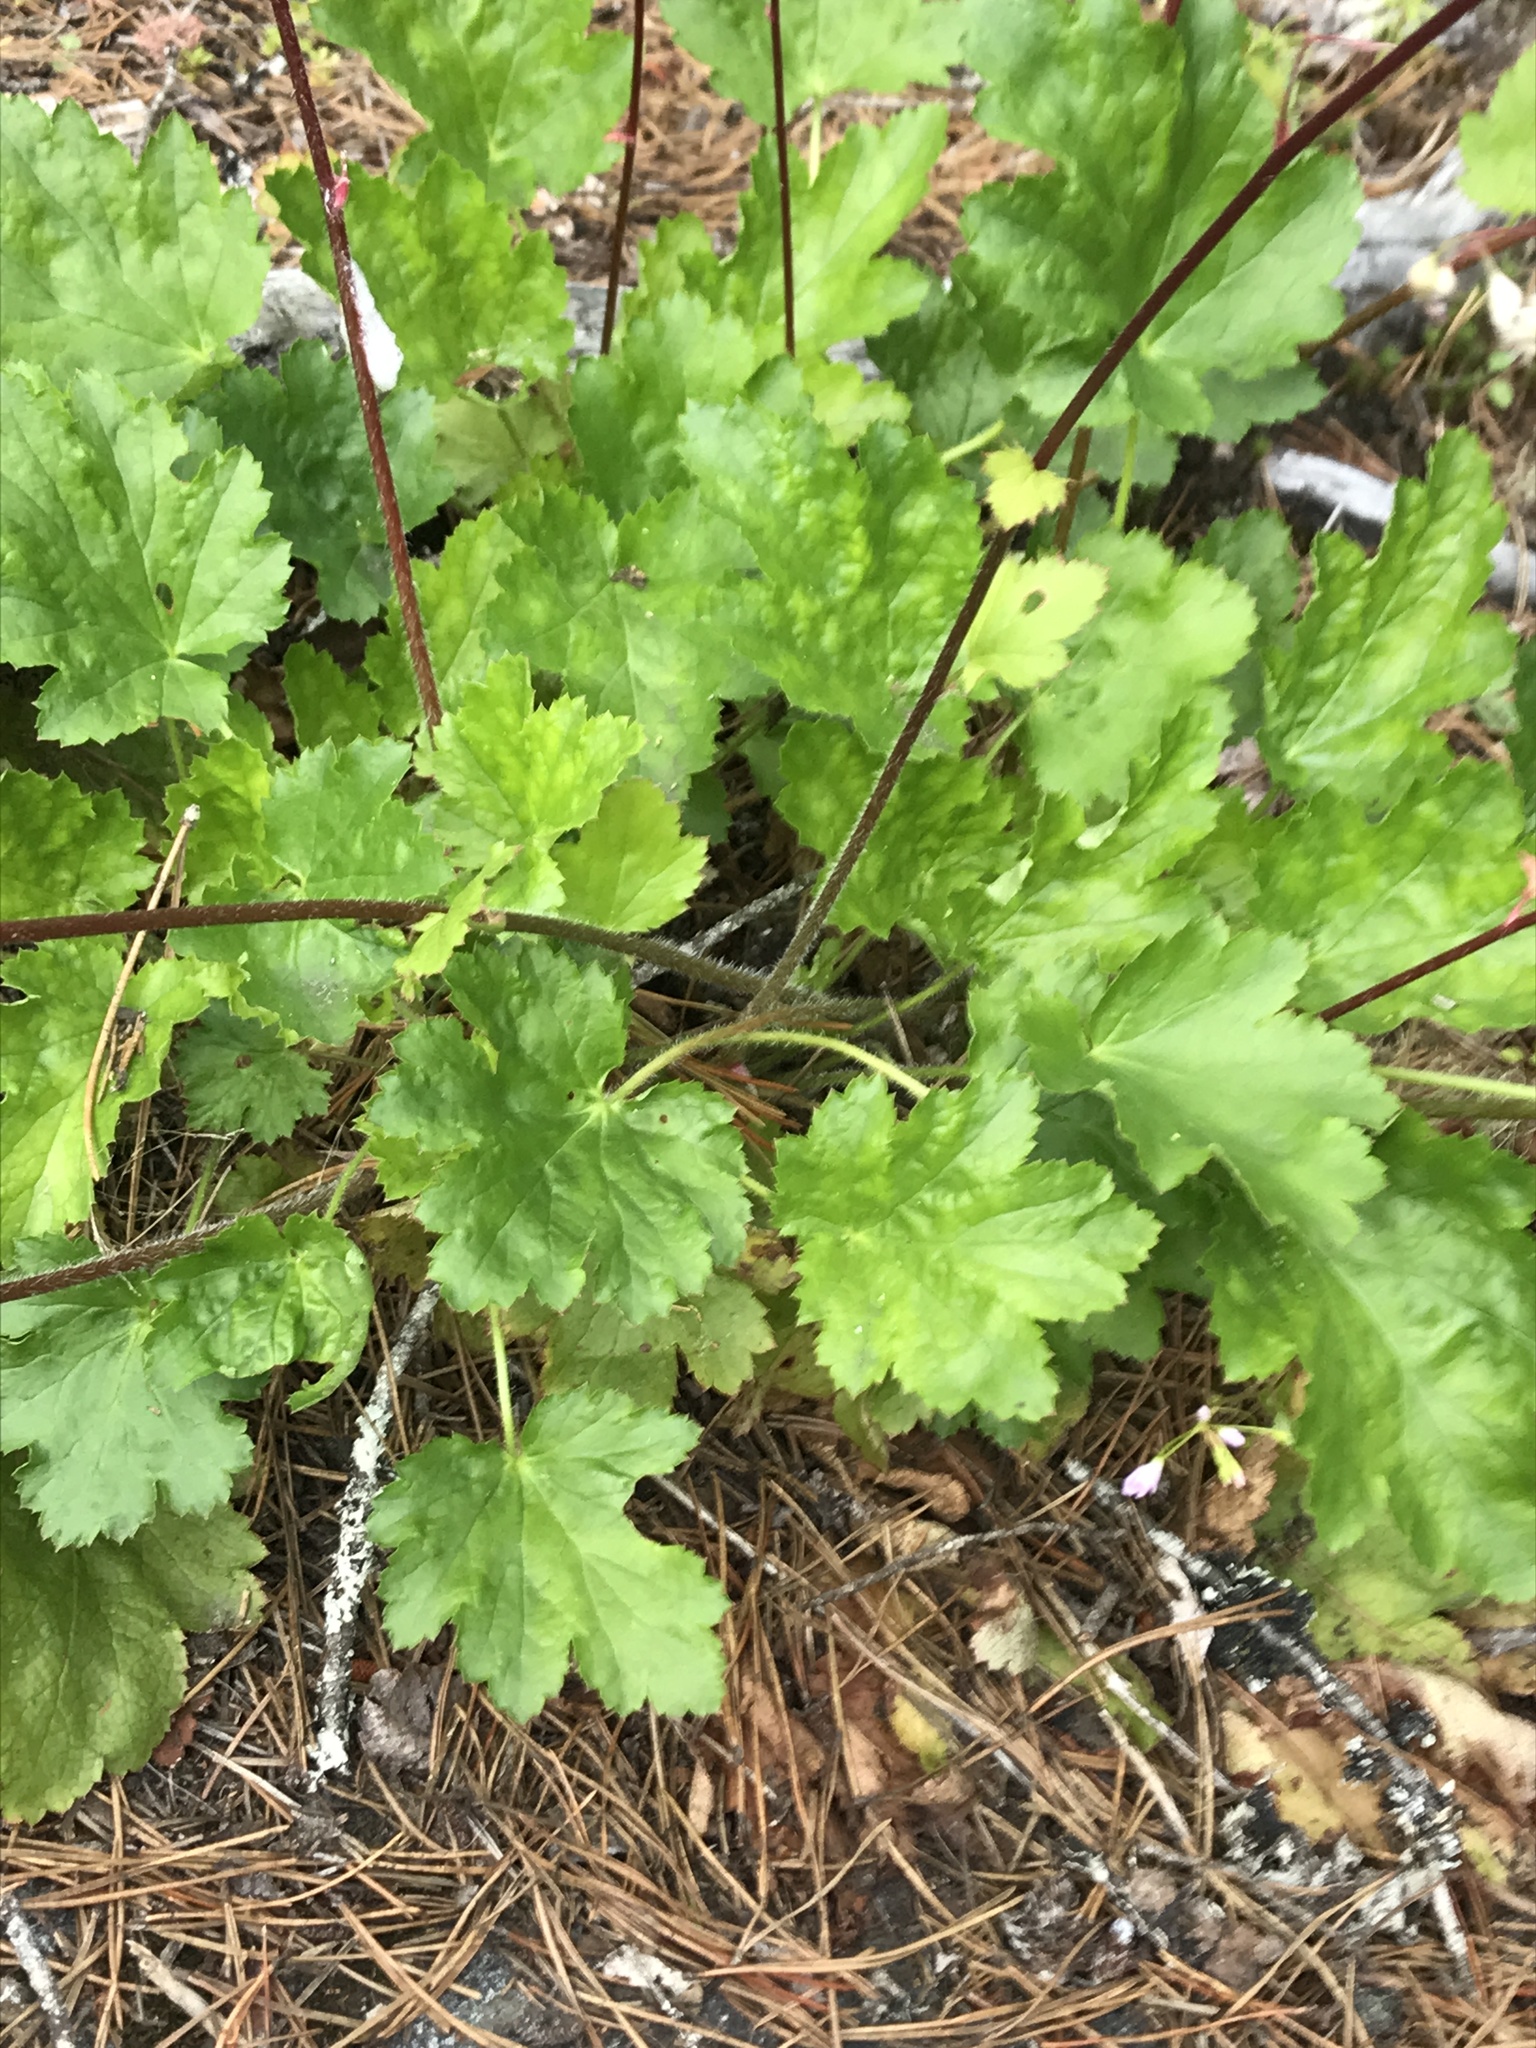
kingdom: Plantae
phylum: Tracheophyta
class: Magnoliopsida
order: Saxifragales
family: Saxifragaceae
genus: Heuchera
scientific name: Heuchera micrantha
